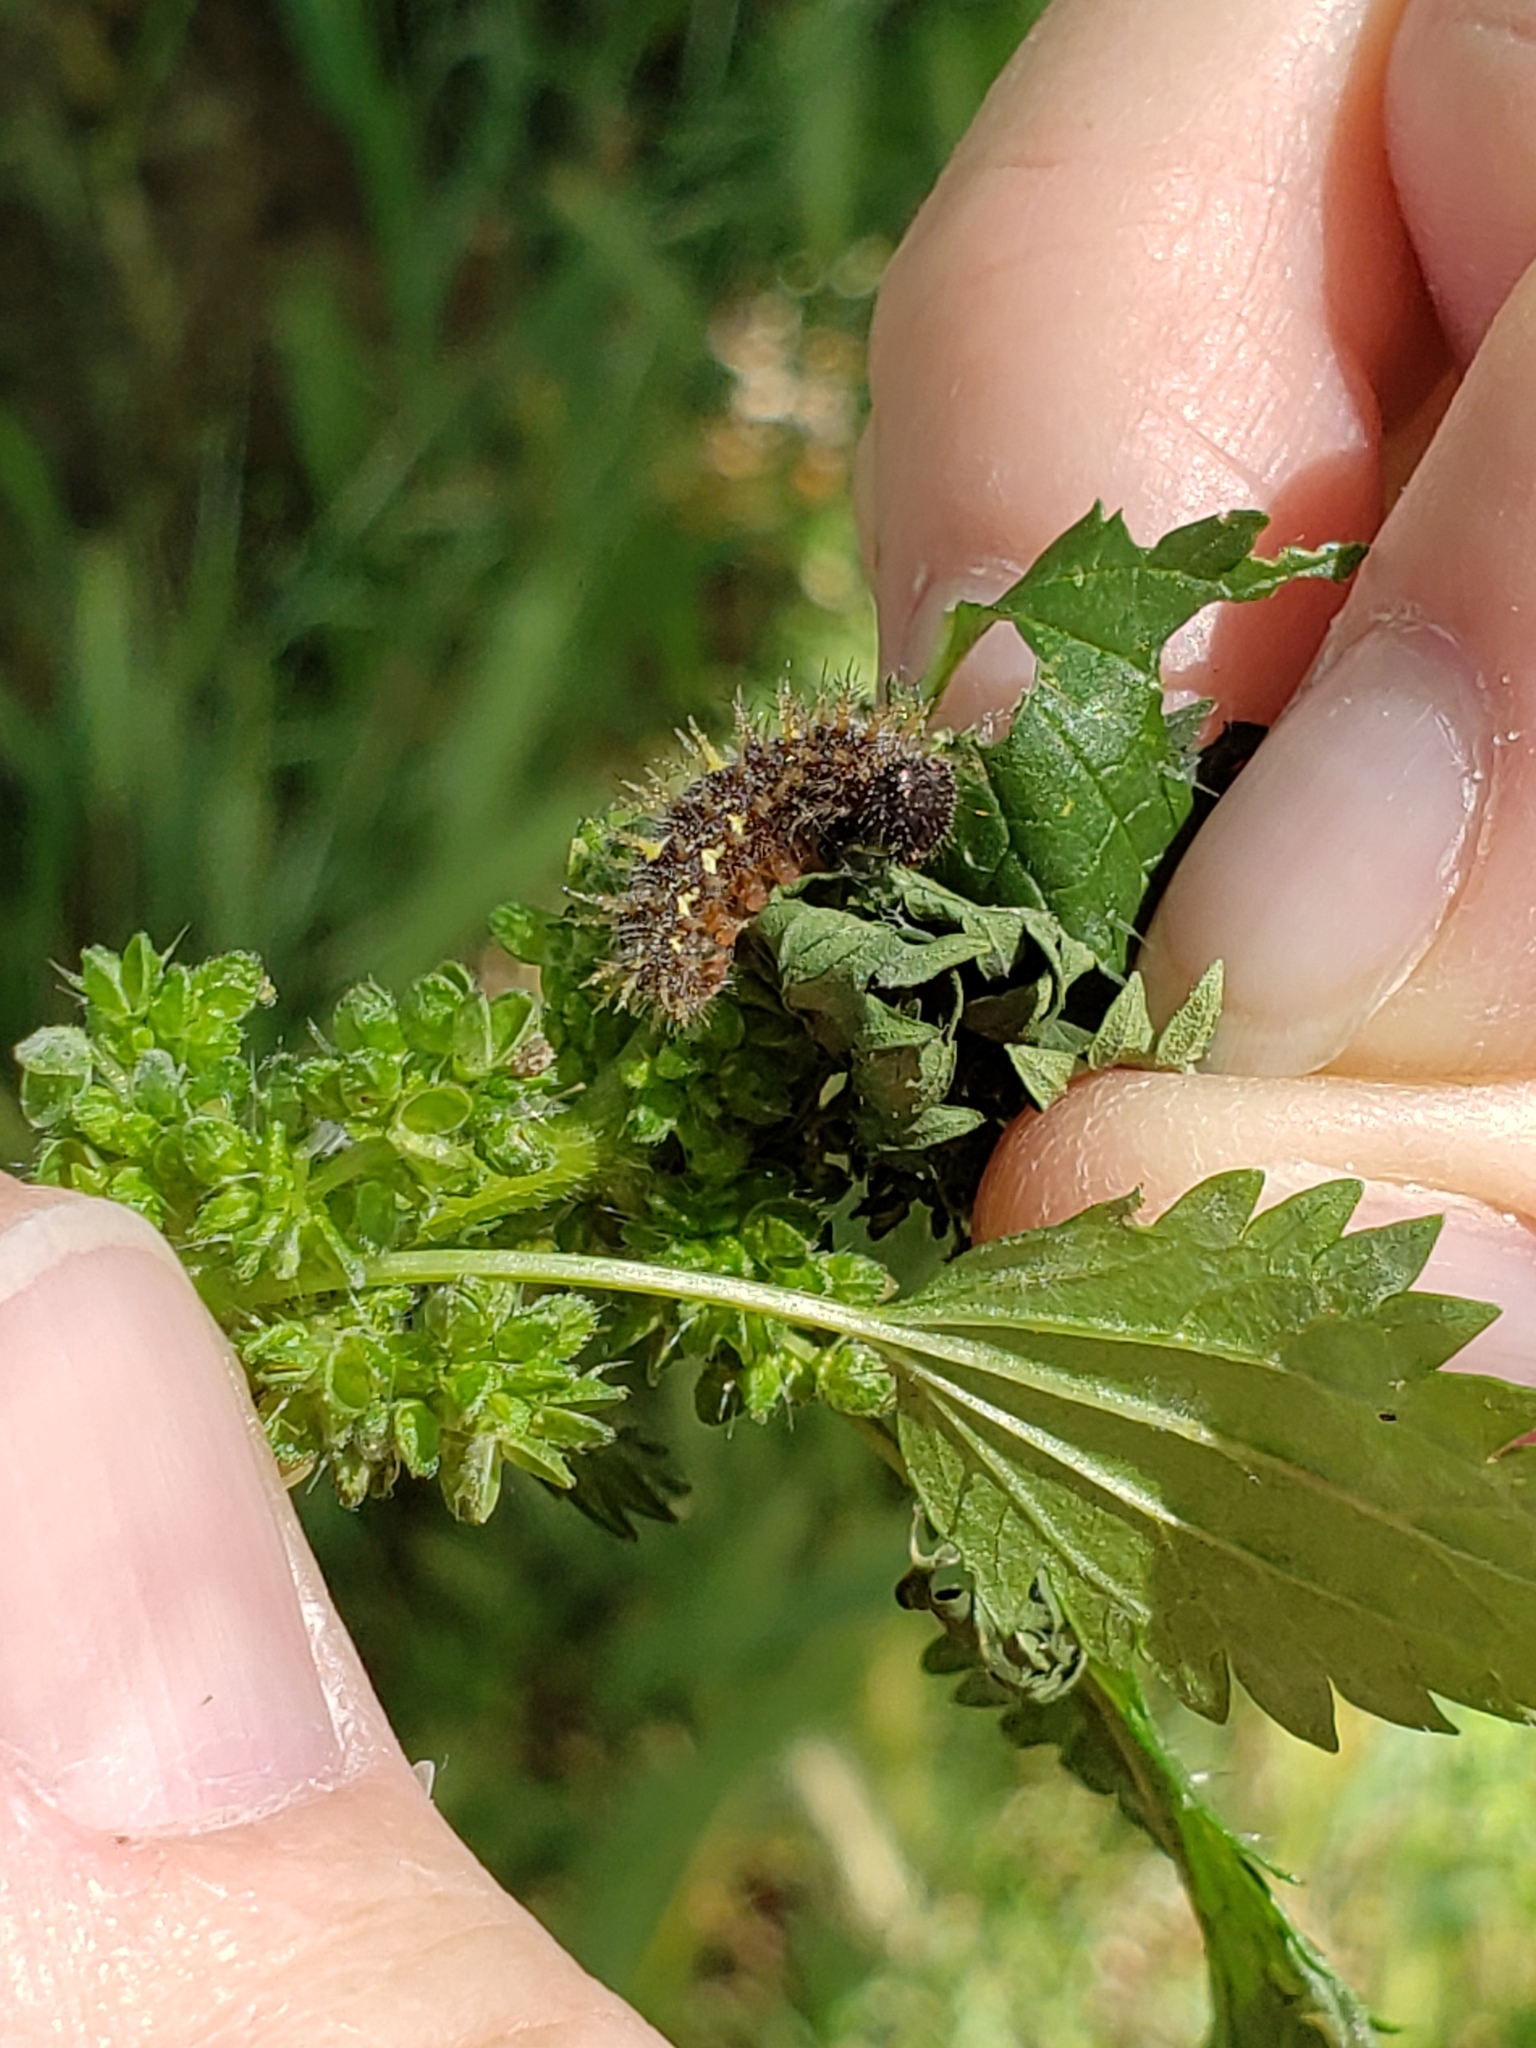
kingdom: Animalia
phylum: Arthropoda
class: Insecta
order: Lepidoptera
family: Nymphalidae
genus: Vanessa
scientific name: Vanessa atalanta
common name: Red admiral
